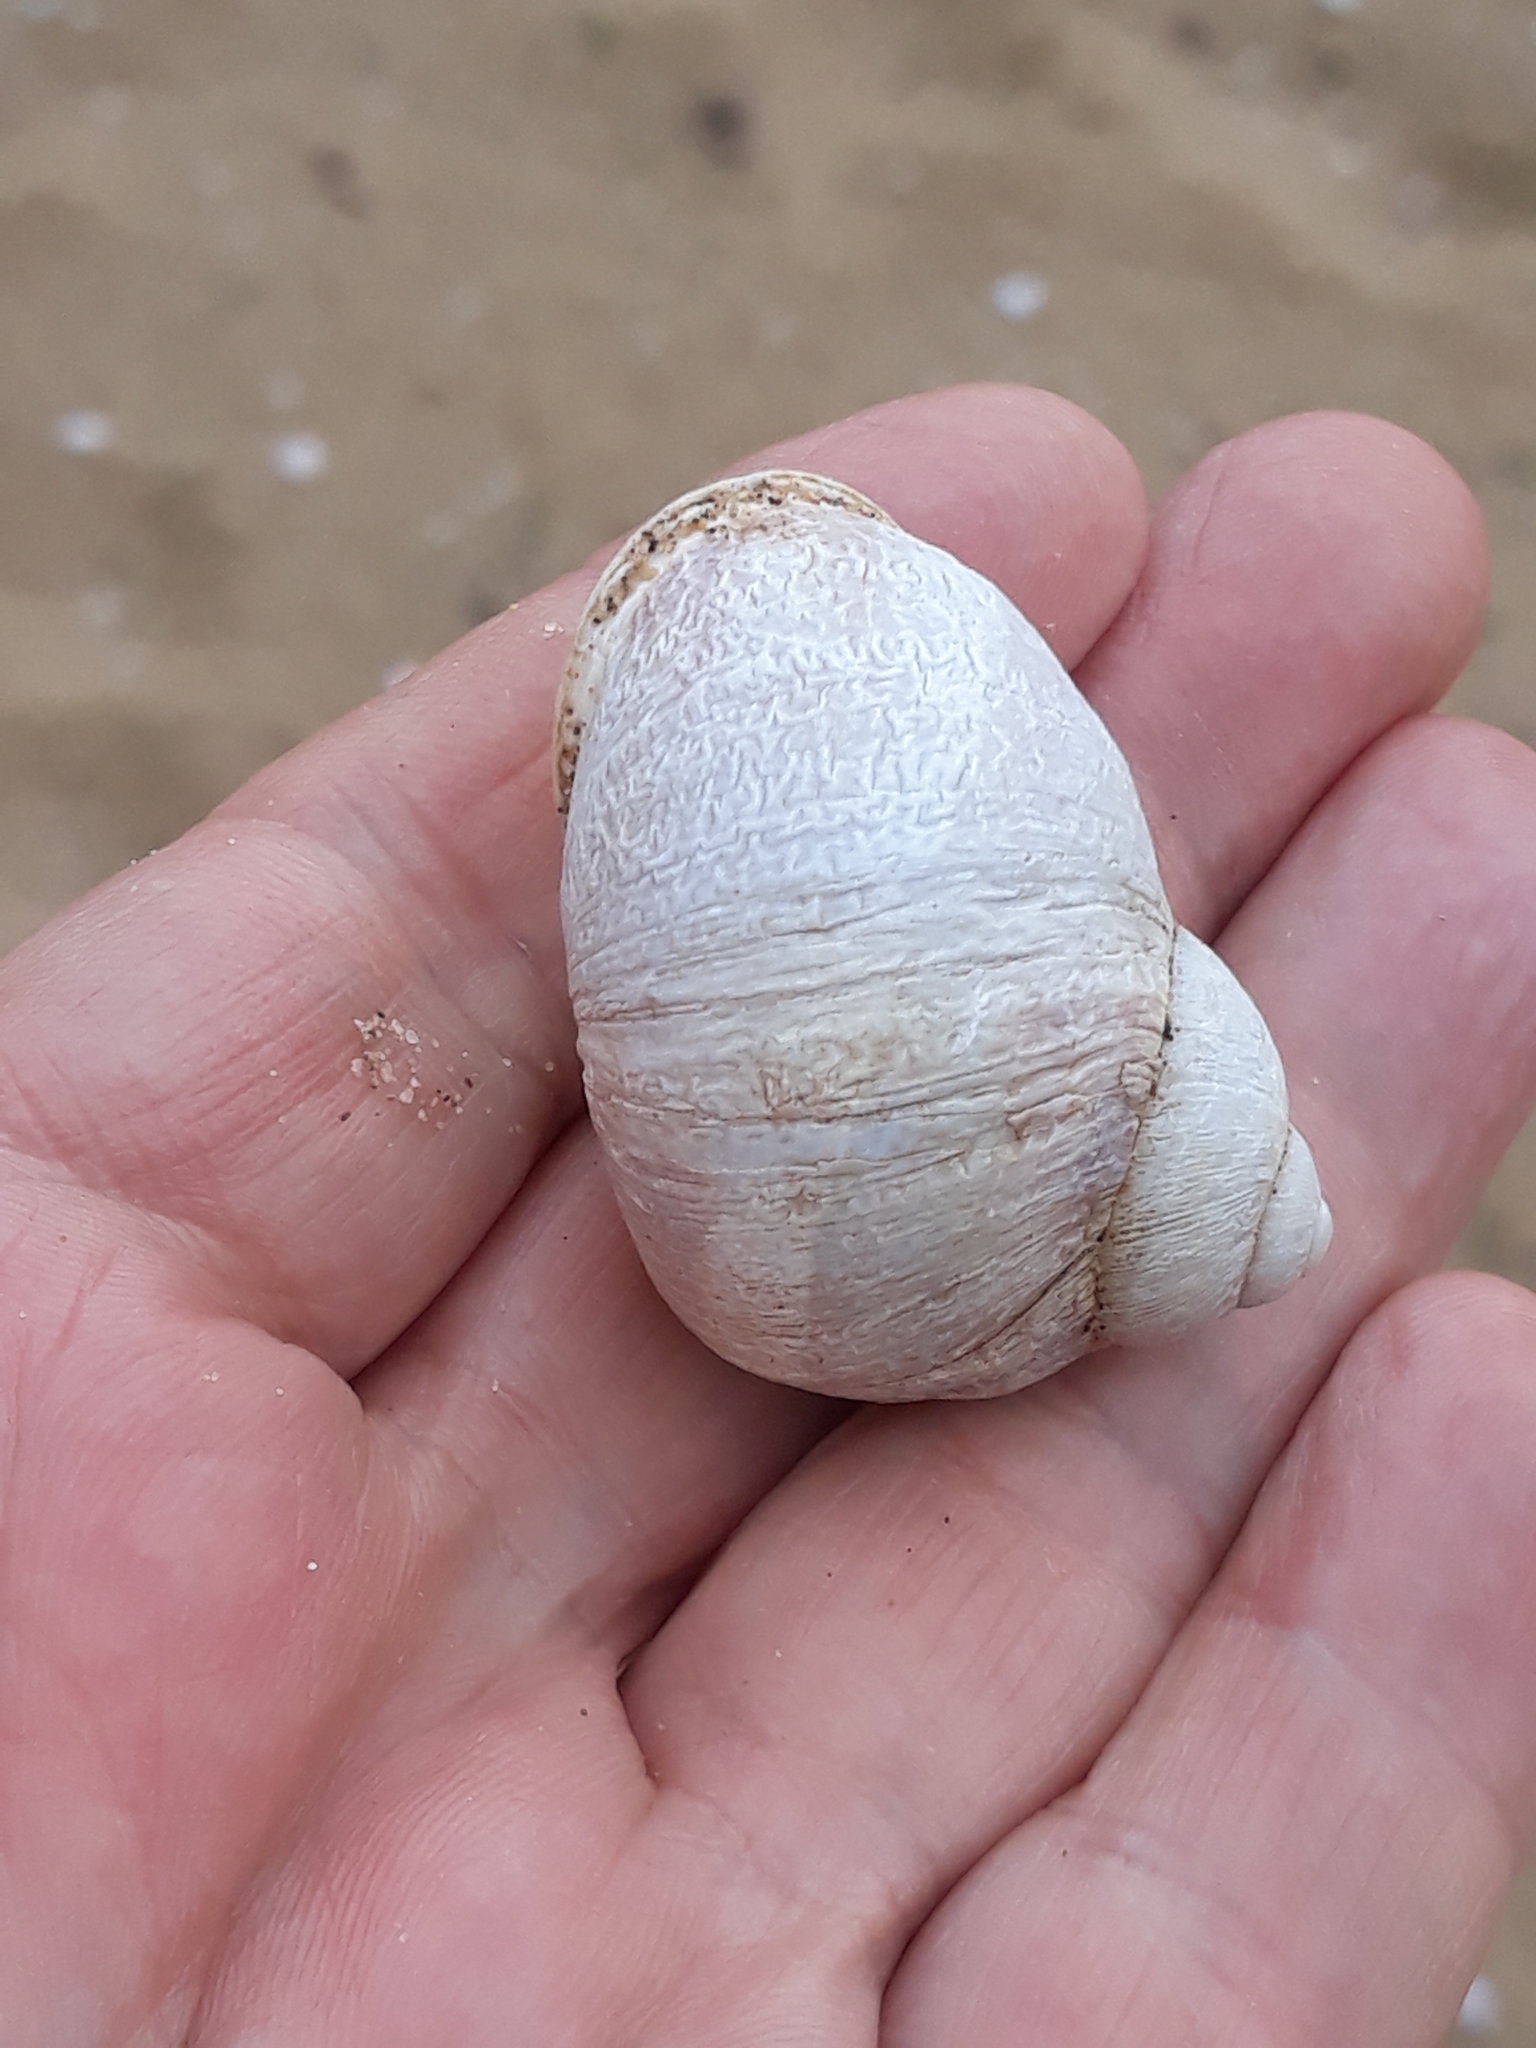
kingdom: Animalia
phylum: Mollusca
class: Gastropoda
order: Stylommatophora
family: Helicidae
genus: Cornu
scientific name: Cornu aspersum
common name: Brown garden snail
